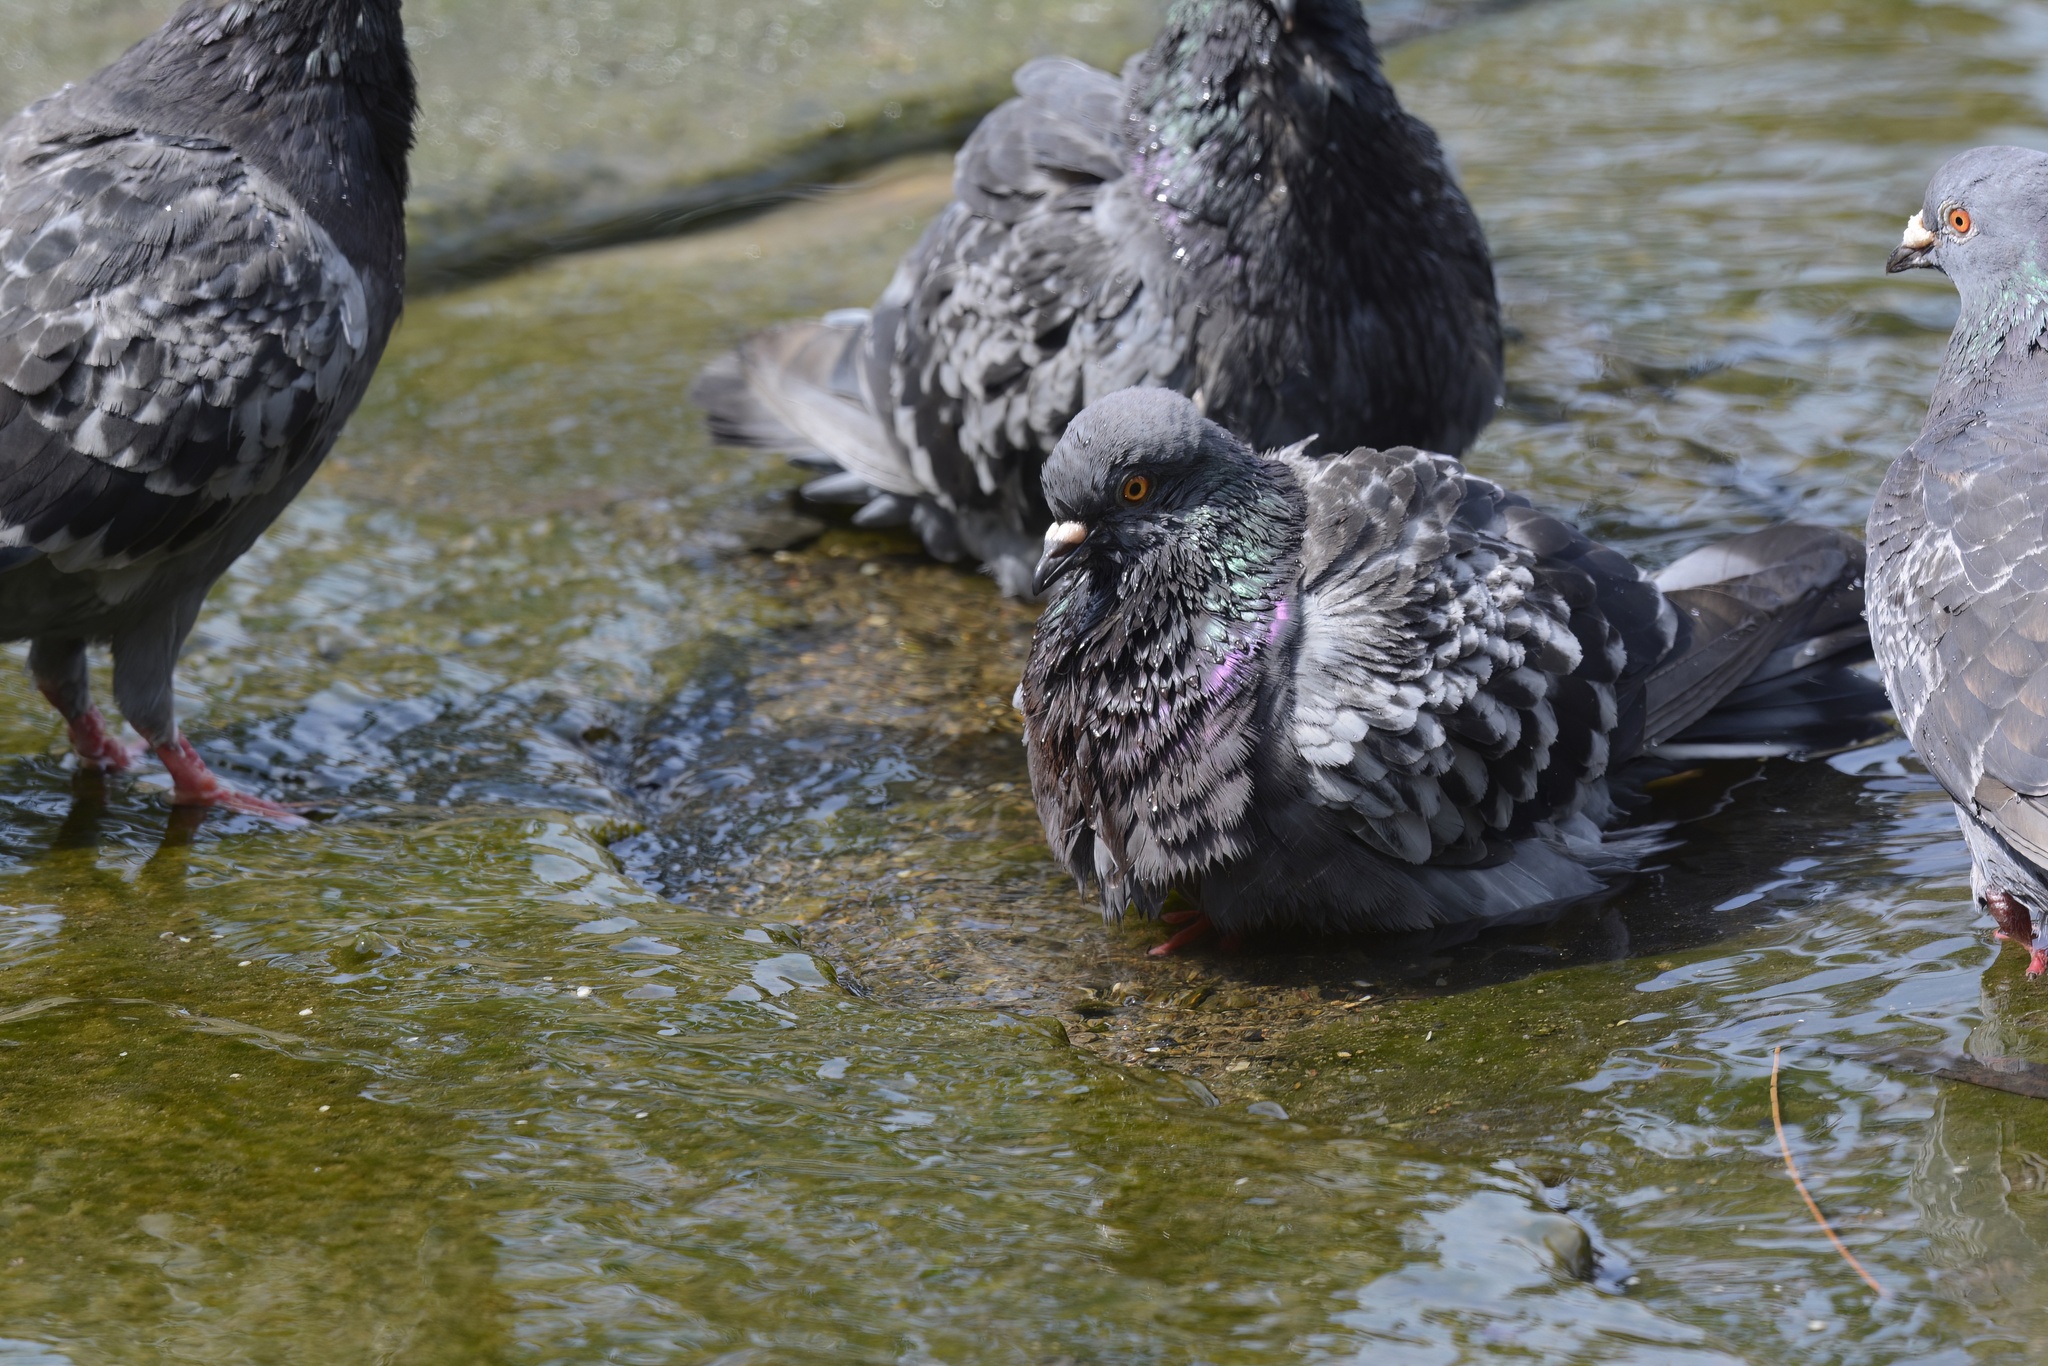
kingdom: Animalia
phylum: Chordata
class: Aves
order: Columbiformes
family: Columbidae
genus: Columba
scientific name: Columba livia
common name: Rock pigeon
